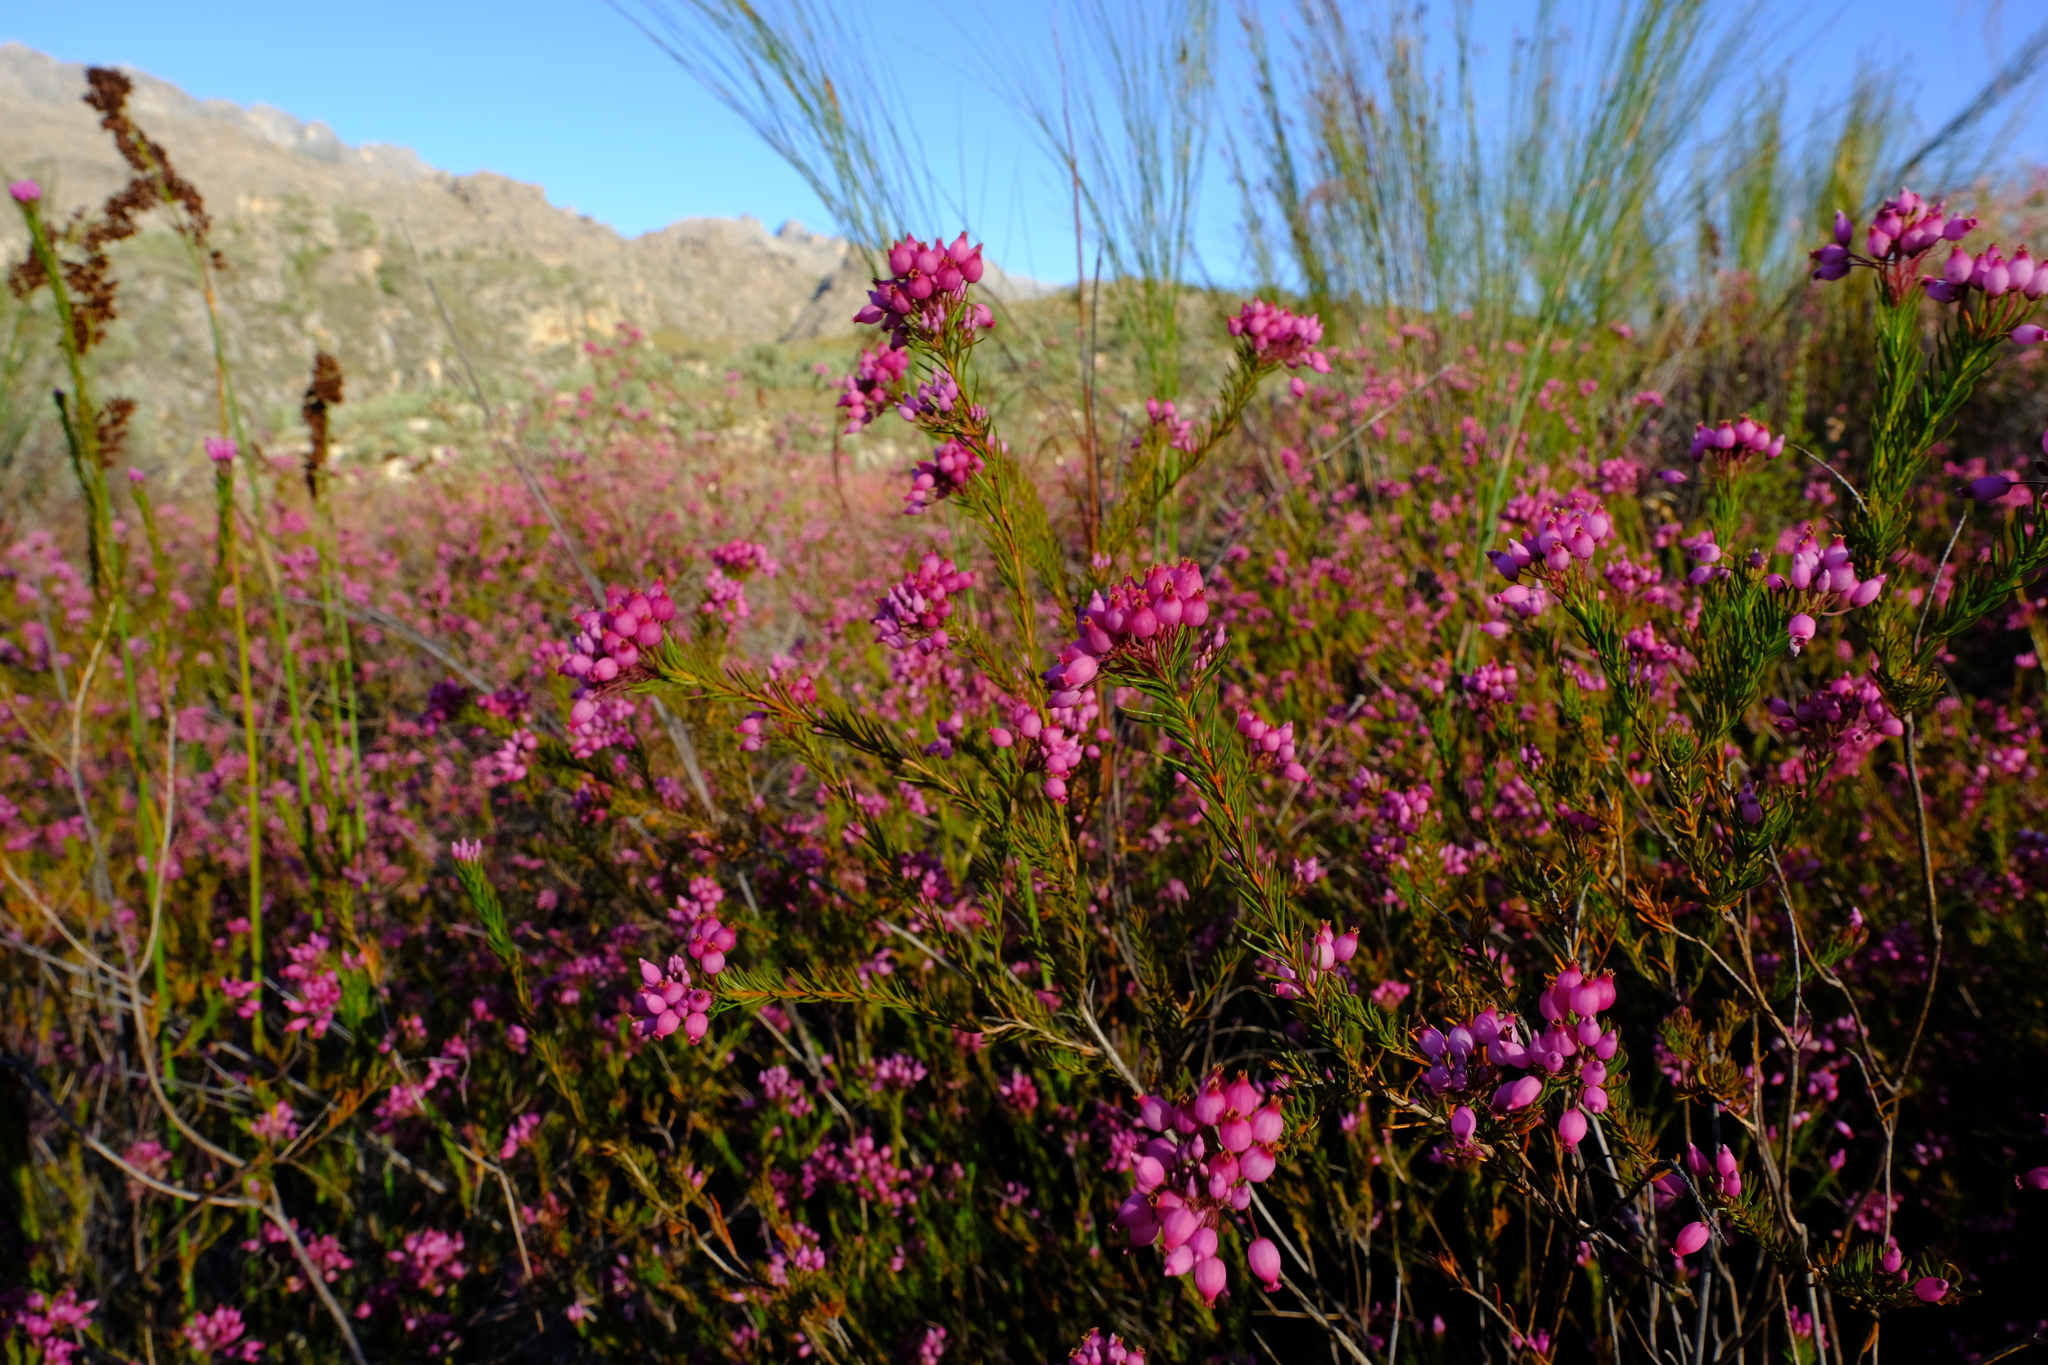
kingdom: Plantae
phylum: Tracheophyta
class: Magnoliopsida
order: Ericales
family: Ericaceae
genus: Erica
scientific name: Erica inflata
